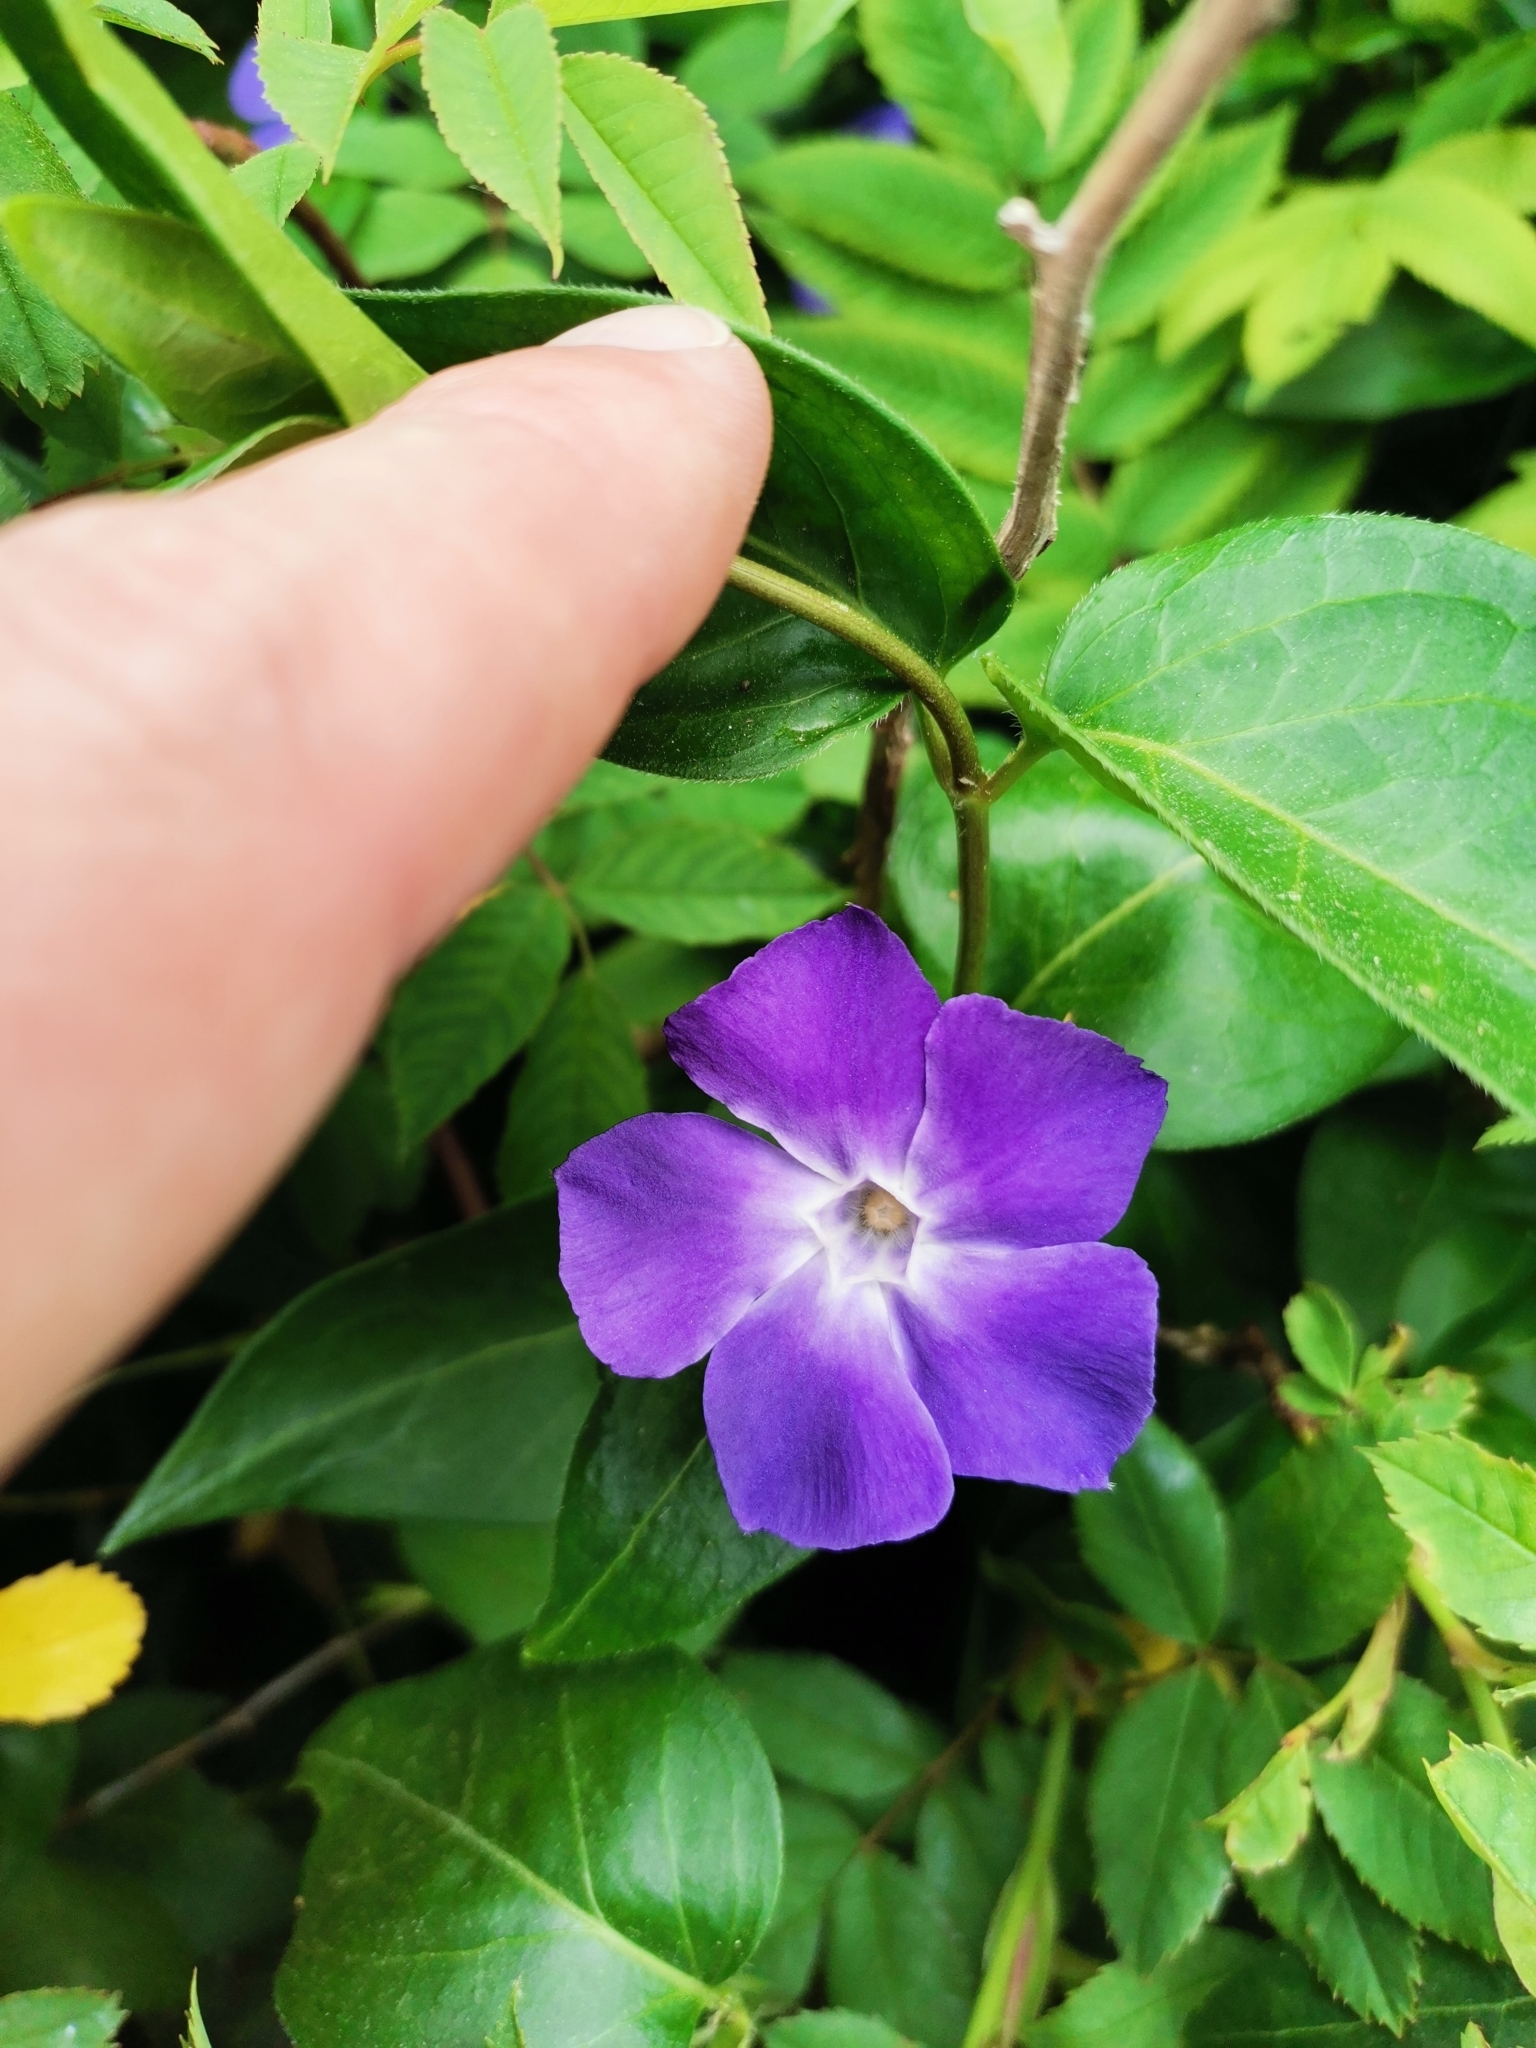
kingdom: Plantae
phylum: Tracheophyta
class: Magnoliopsida
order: Gentianales
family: Apocynaceae
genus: Vinca
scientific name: Vinca major
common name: Greater periwinkle
